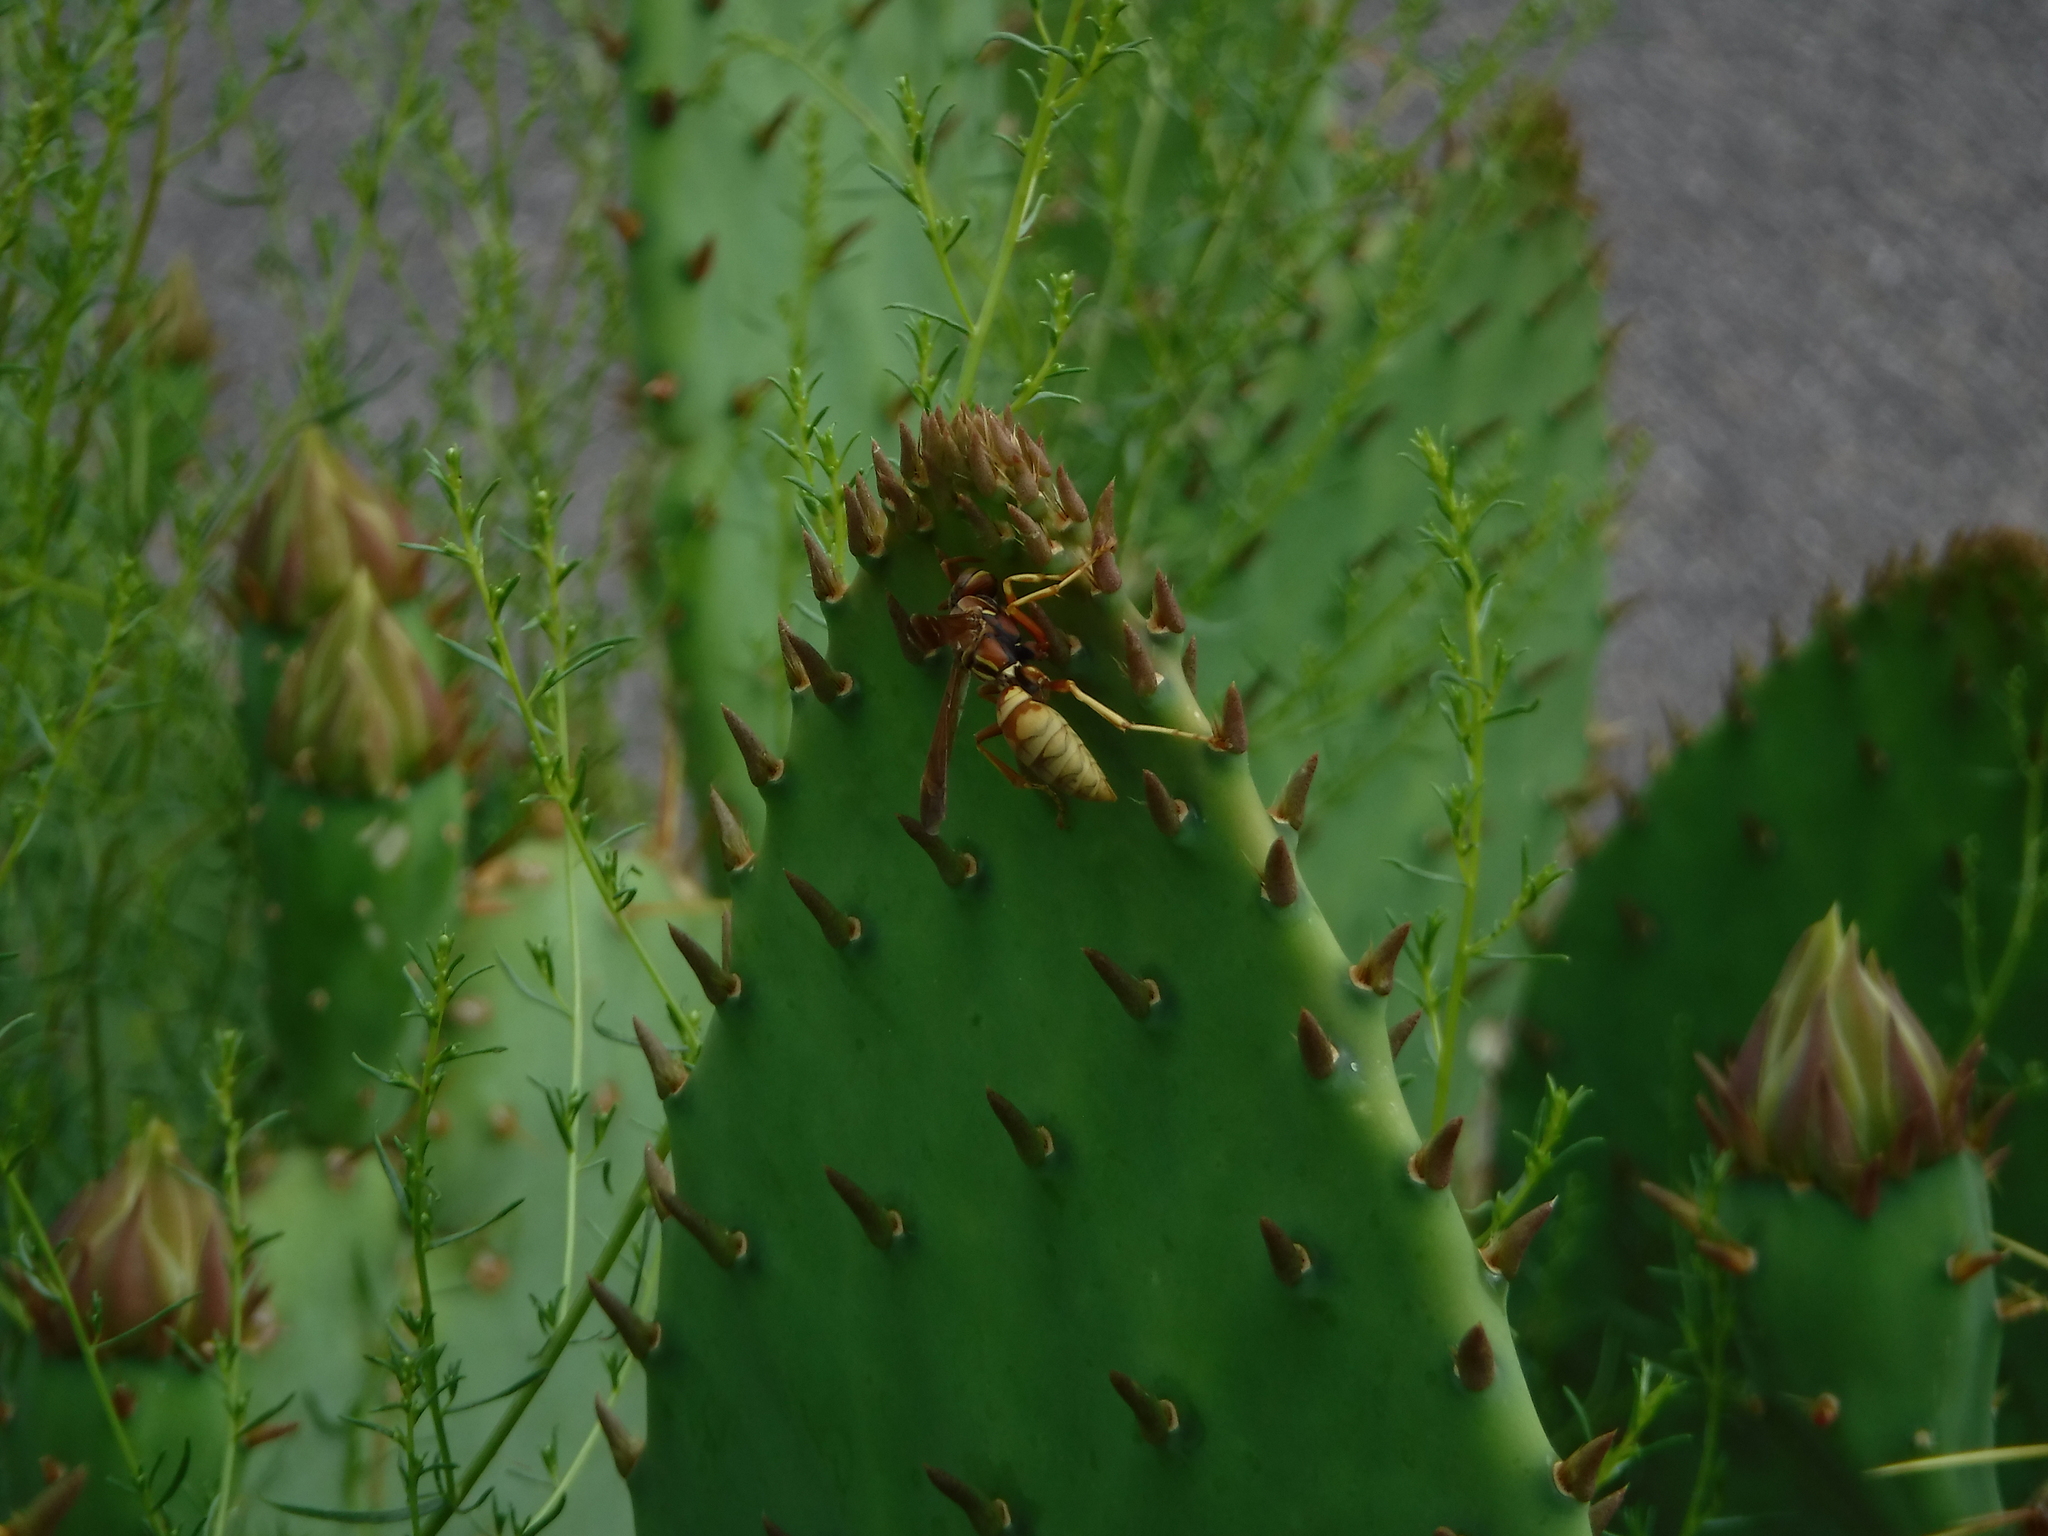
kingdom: Animalia
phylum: Arthropoda
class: Insecta
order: Hymenoptera
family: Eumenidae
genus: Polistes
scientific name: Polistes aurifer
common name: Paper wasp
